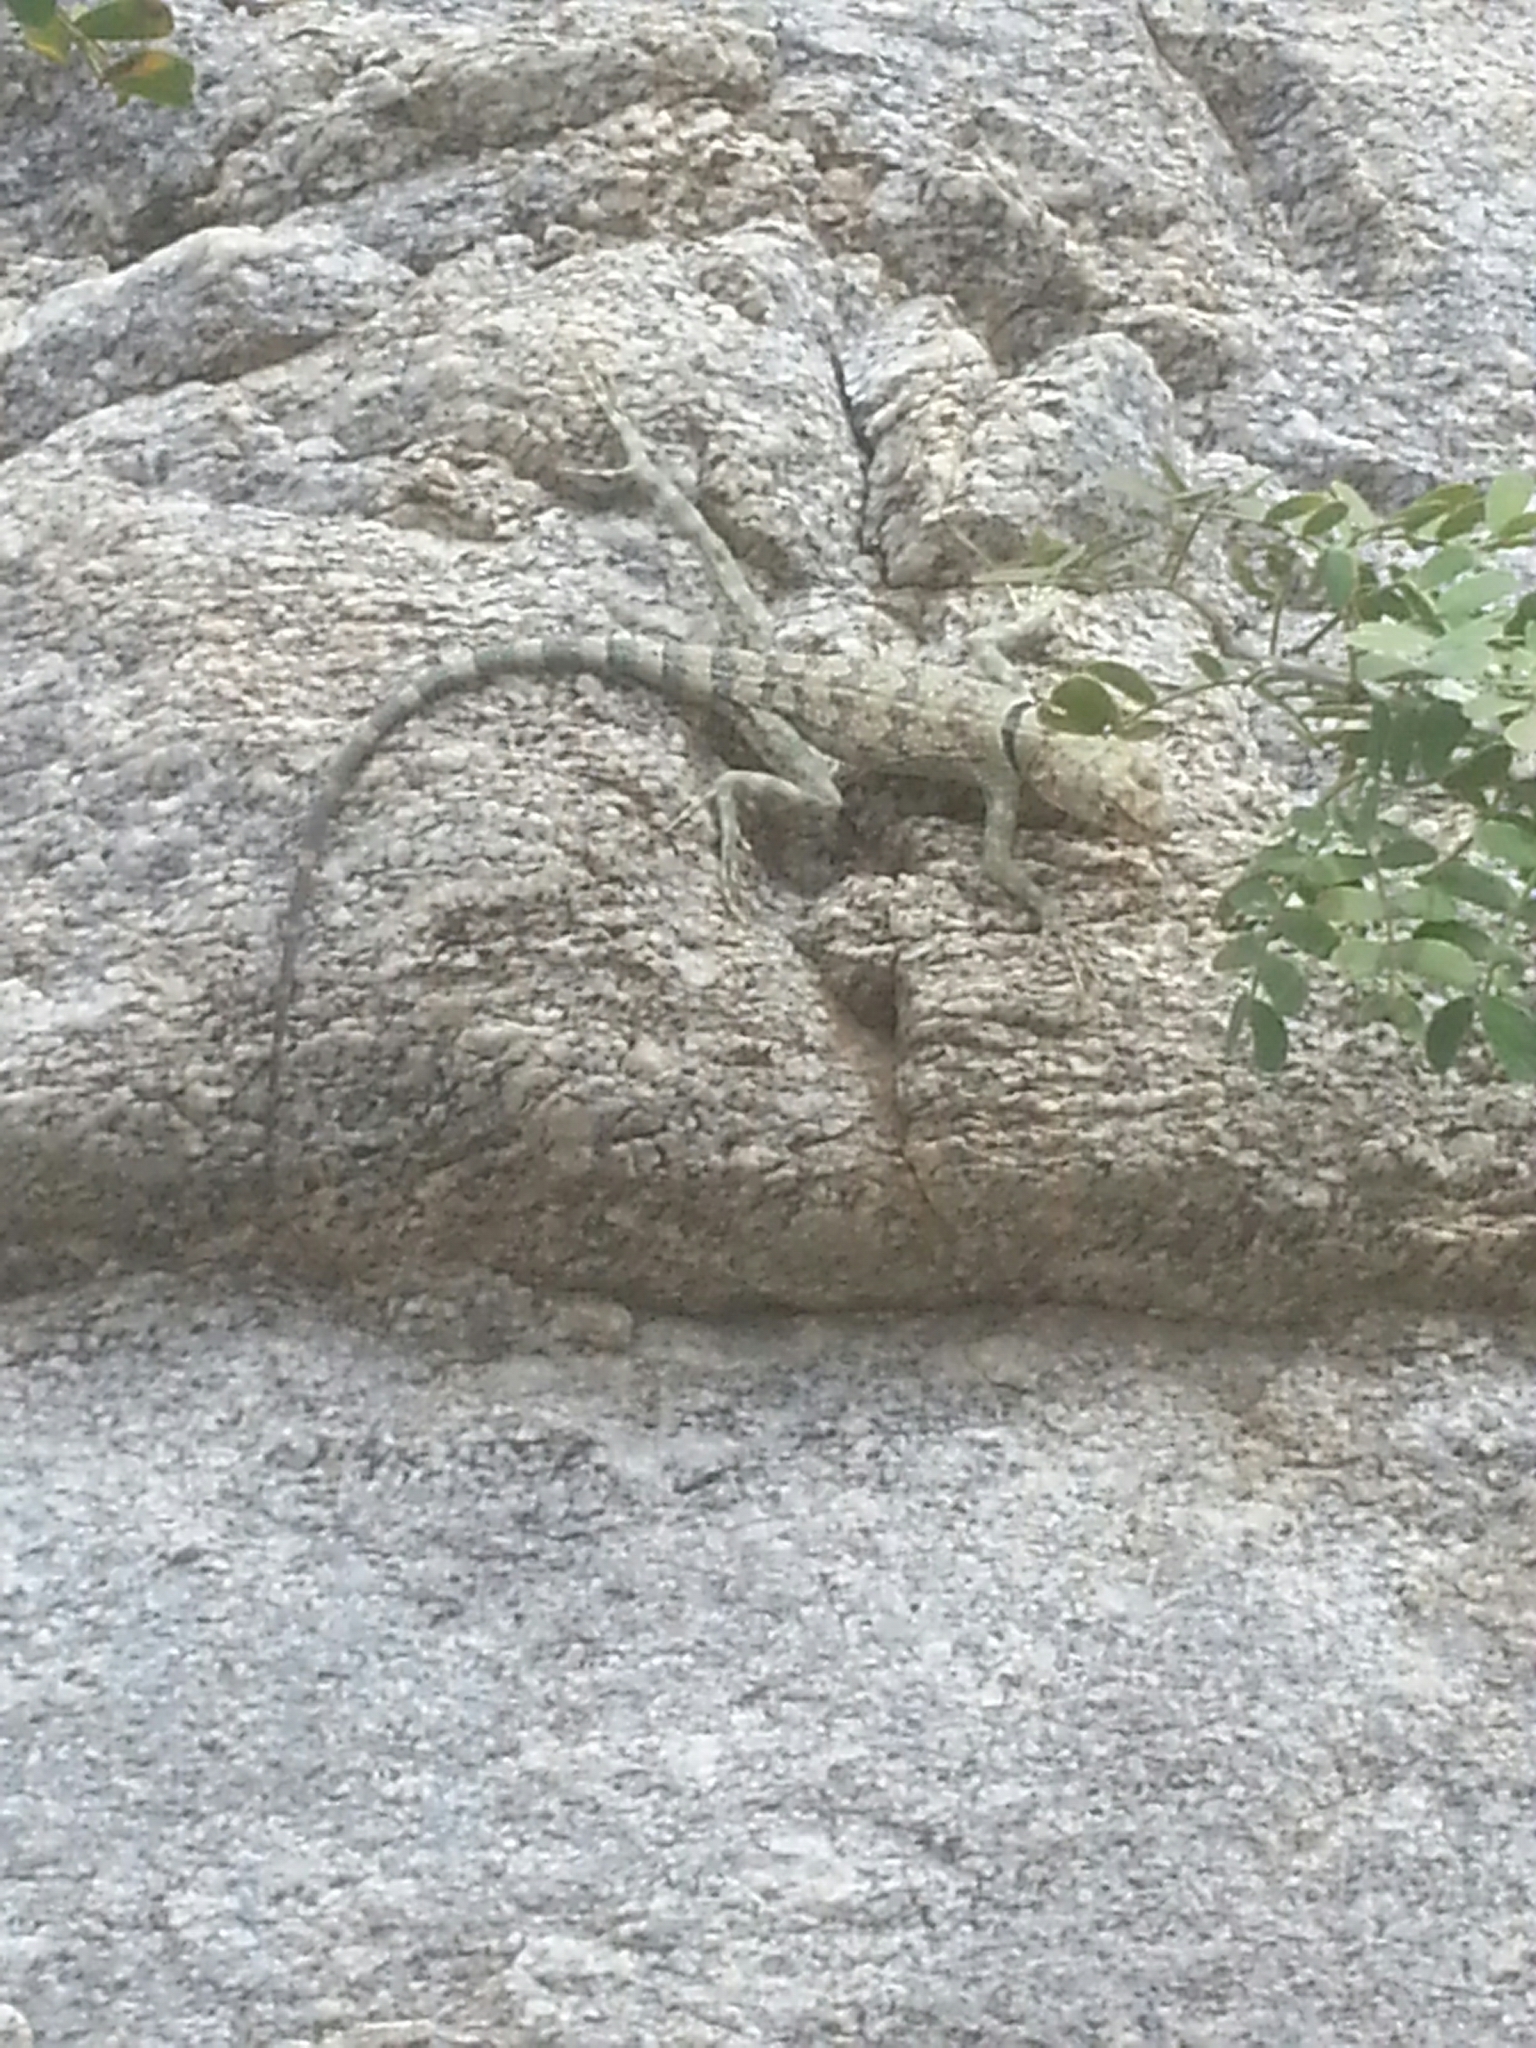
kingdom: Animalia
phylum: Chordata
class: Squamata
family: Phrynosomatidae
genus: Petrosaurus
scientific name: Petrosaurus mearnsi
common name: Banded rock lizard
